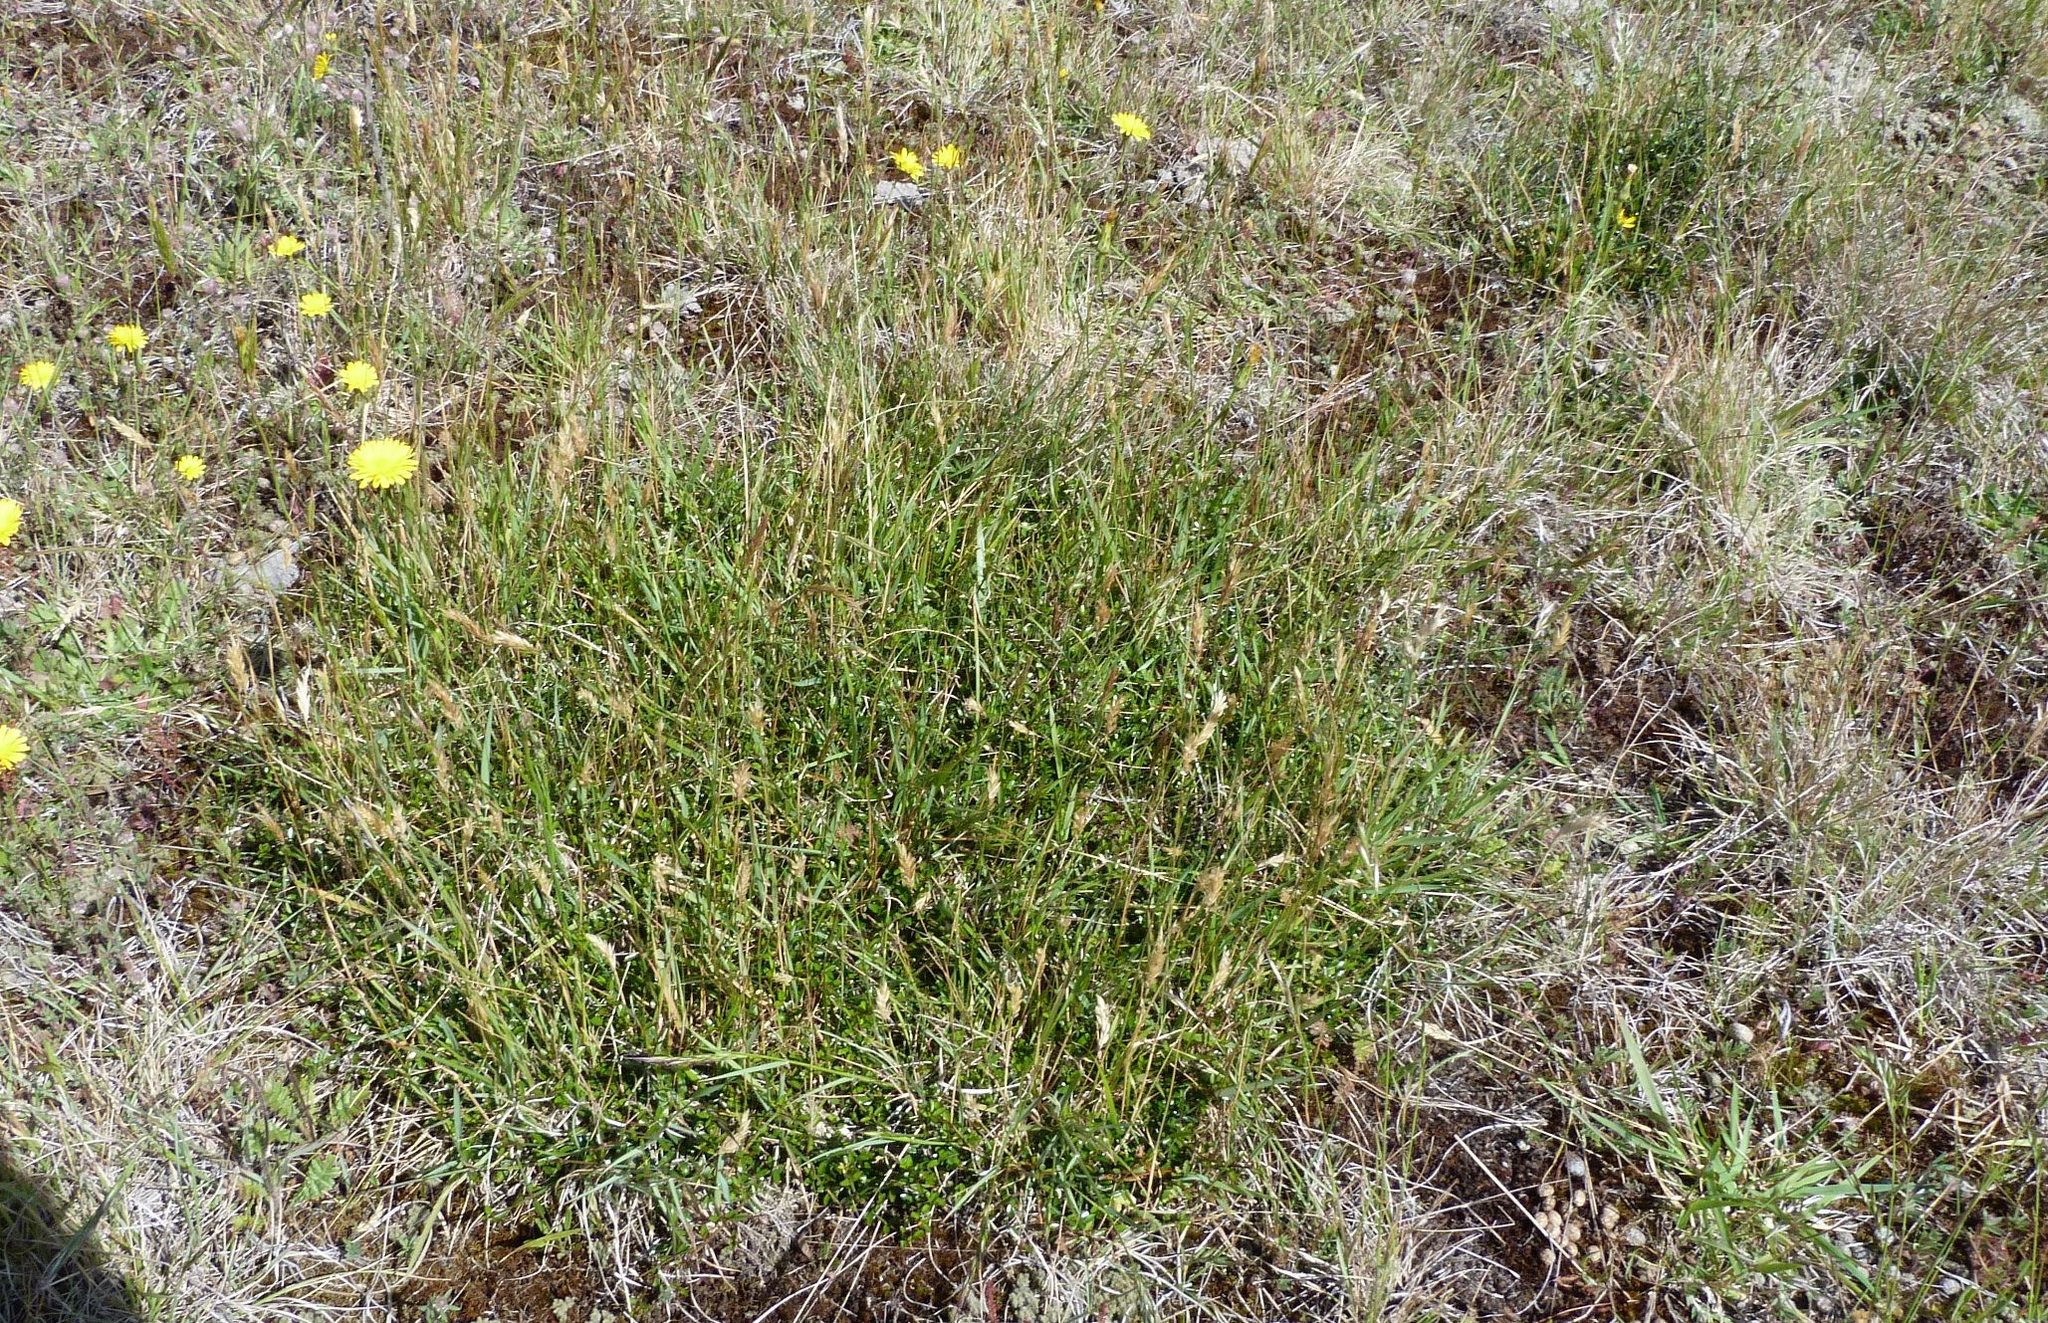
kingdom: Plantae
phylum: Tracheophyta
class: Magnoliopsida
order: Rosales
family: Rhamnaceae
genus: Discaria
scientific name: Discaria toumatou
